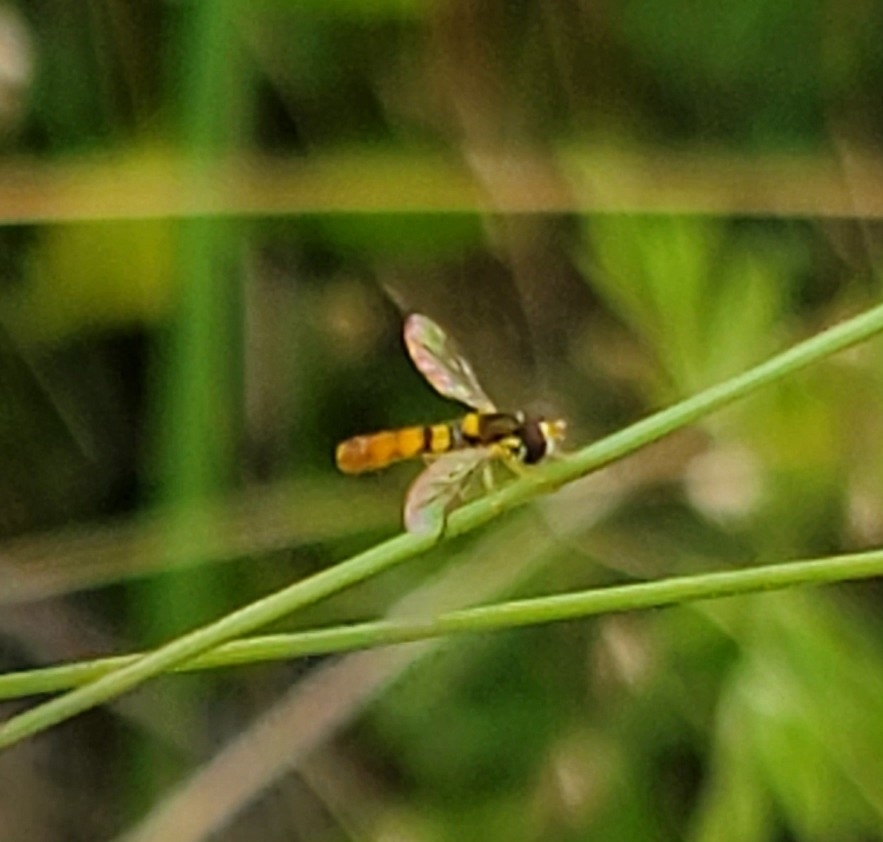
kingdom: Animalia
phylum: Arthropoda
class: Insecta
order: Diptera
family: Syrphidae
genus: Sphaerophoria
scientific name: Sphaerophoria contigua
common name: Tufted globetail
